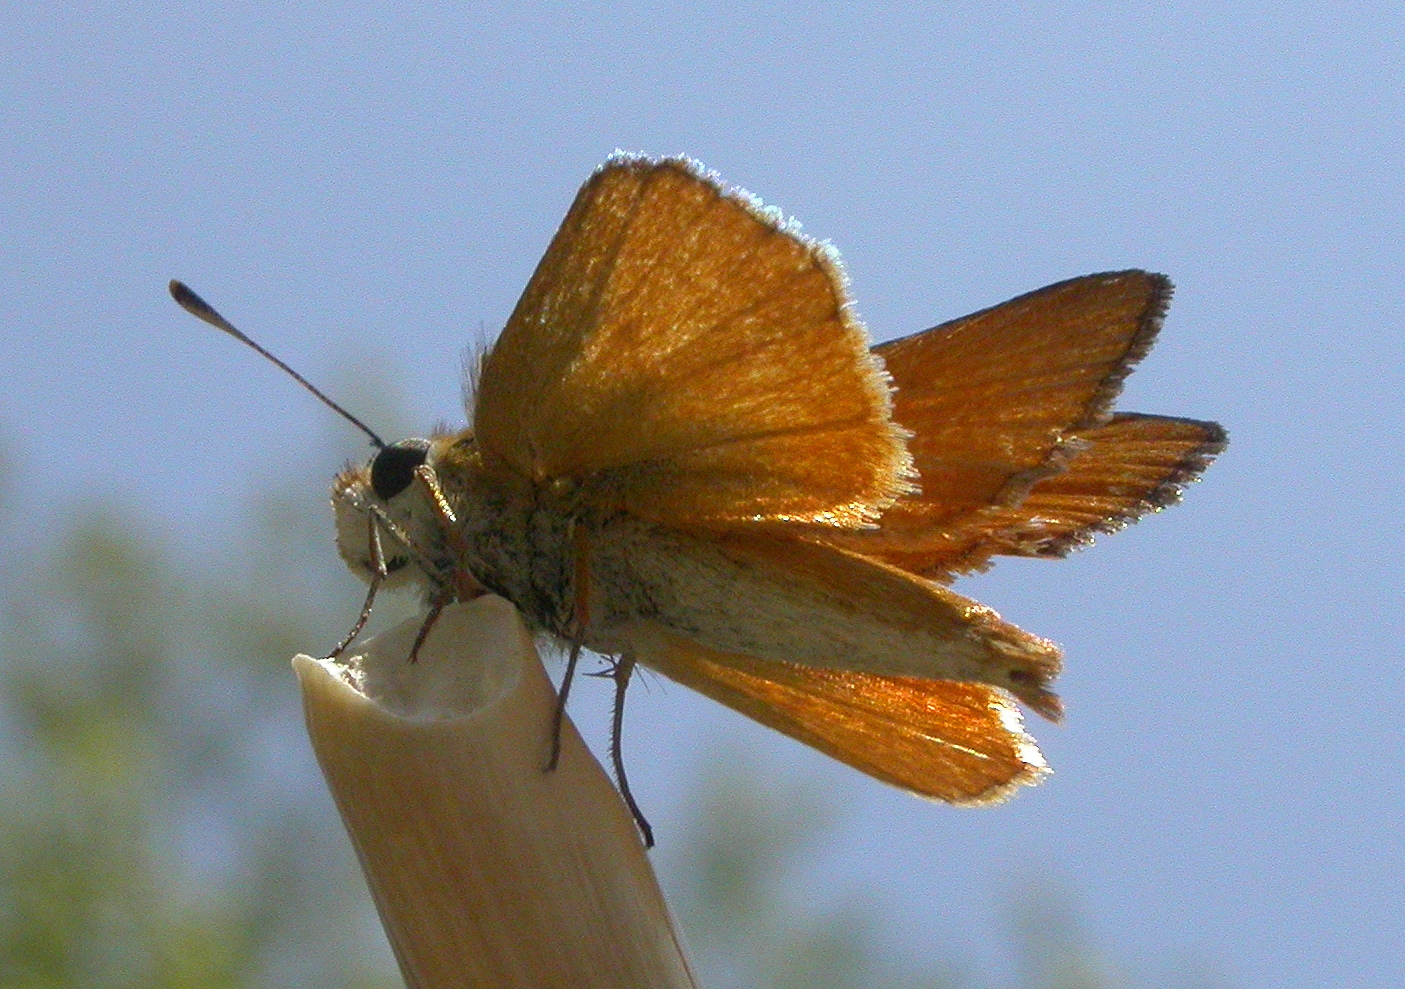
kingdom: Animalia
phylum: Arthropoda
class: Insecta
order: Lepidoptera
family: Hesperiidae
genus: Copaeodes
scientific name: Copaeodes aurantiaca
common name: Orange skipperling
